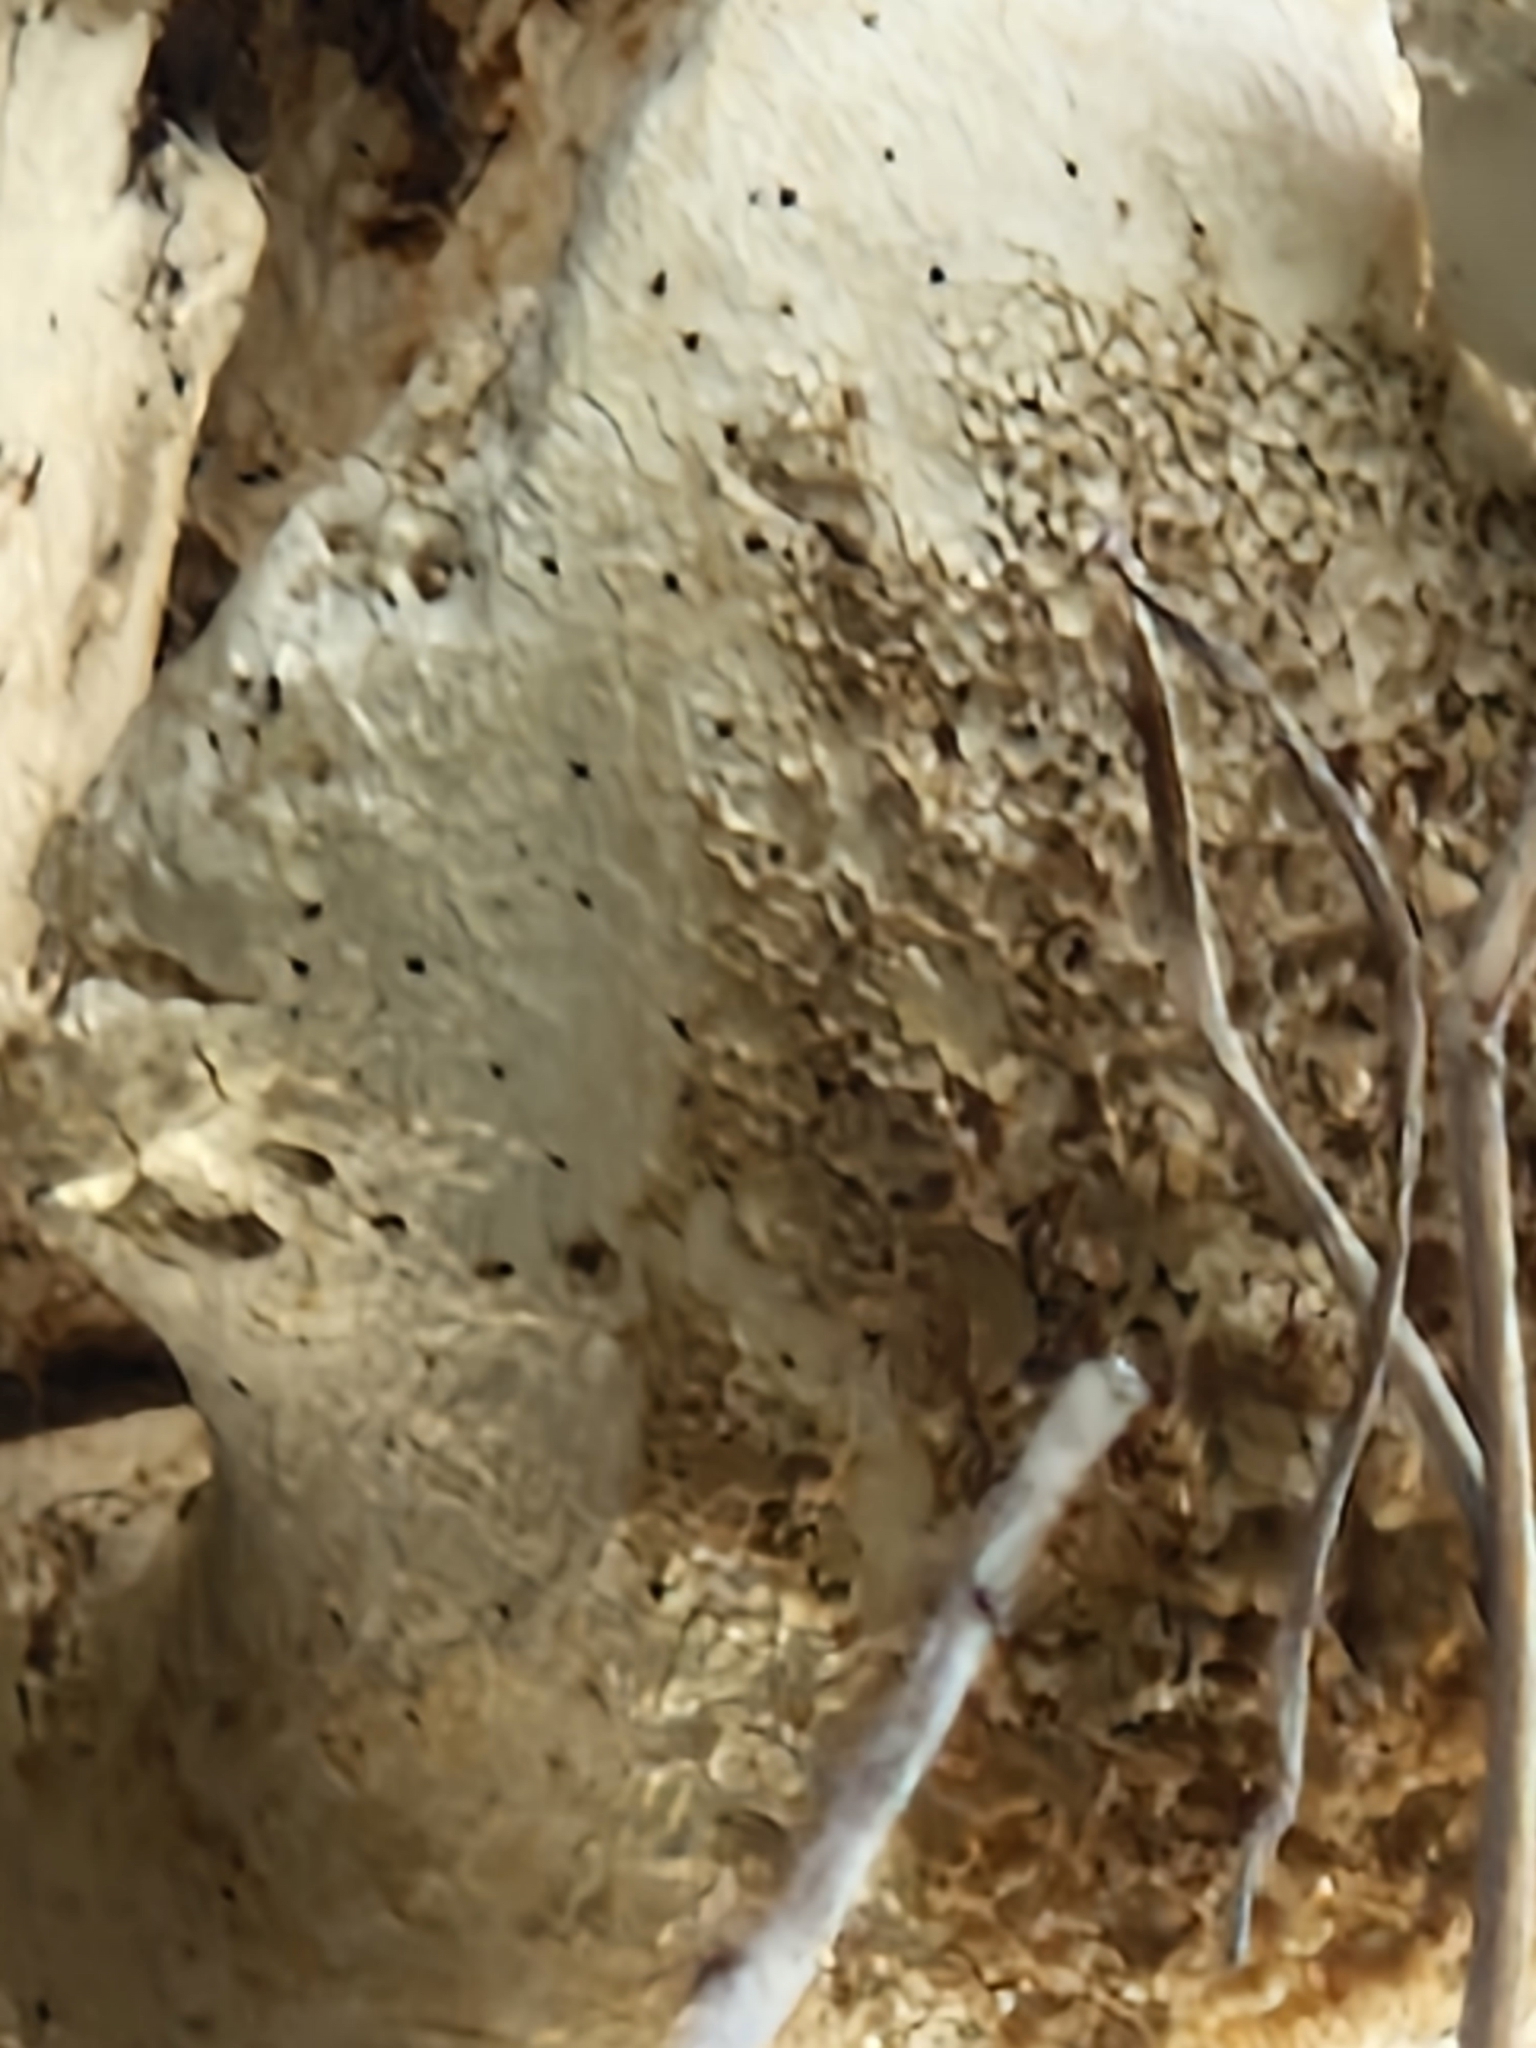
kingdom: Fungi
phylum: Basidiomycota
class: Agaricomycetes
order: Polyporales
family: Polyporaceae
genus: Cerioporus
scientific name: Cerioporus squamosus
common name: Dryad's saddle
